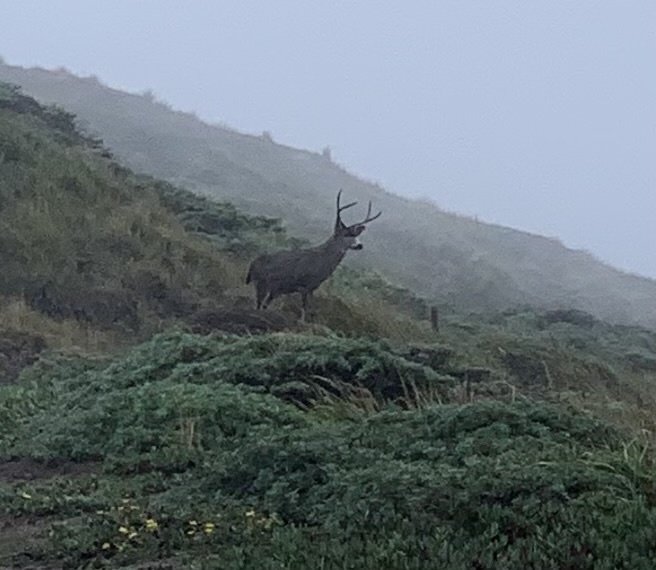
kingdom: Animalia
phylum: Chordata
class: Mammalia
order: Artiodactyla
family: Cervidae
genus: Odocoileus
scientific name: Odocoileus hemionus
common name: Mule deer
